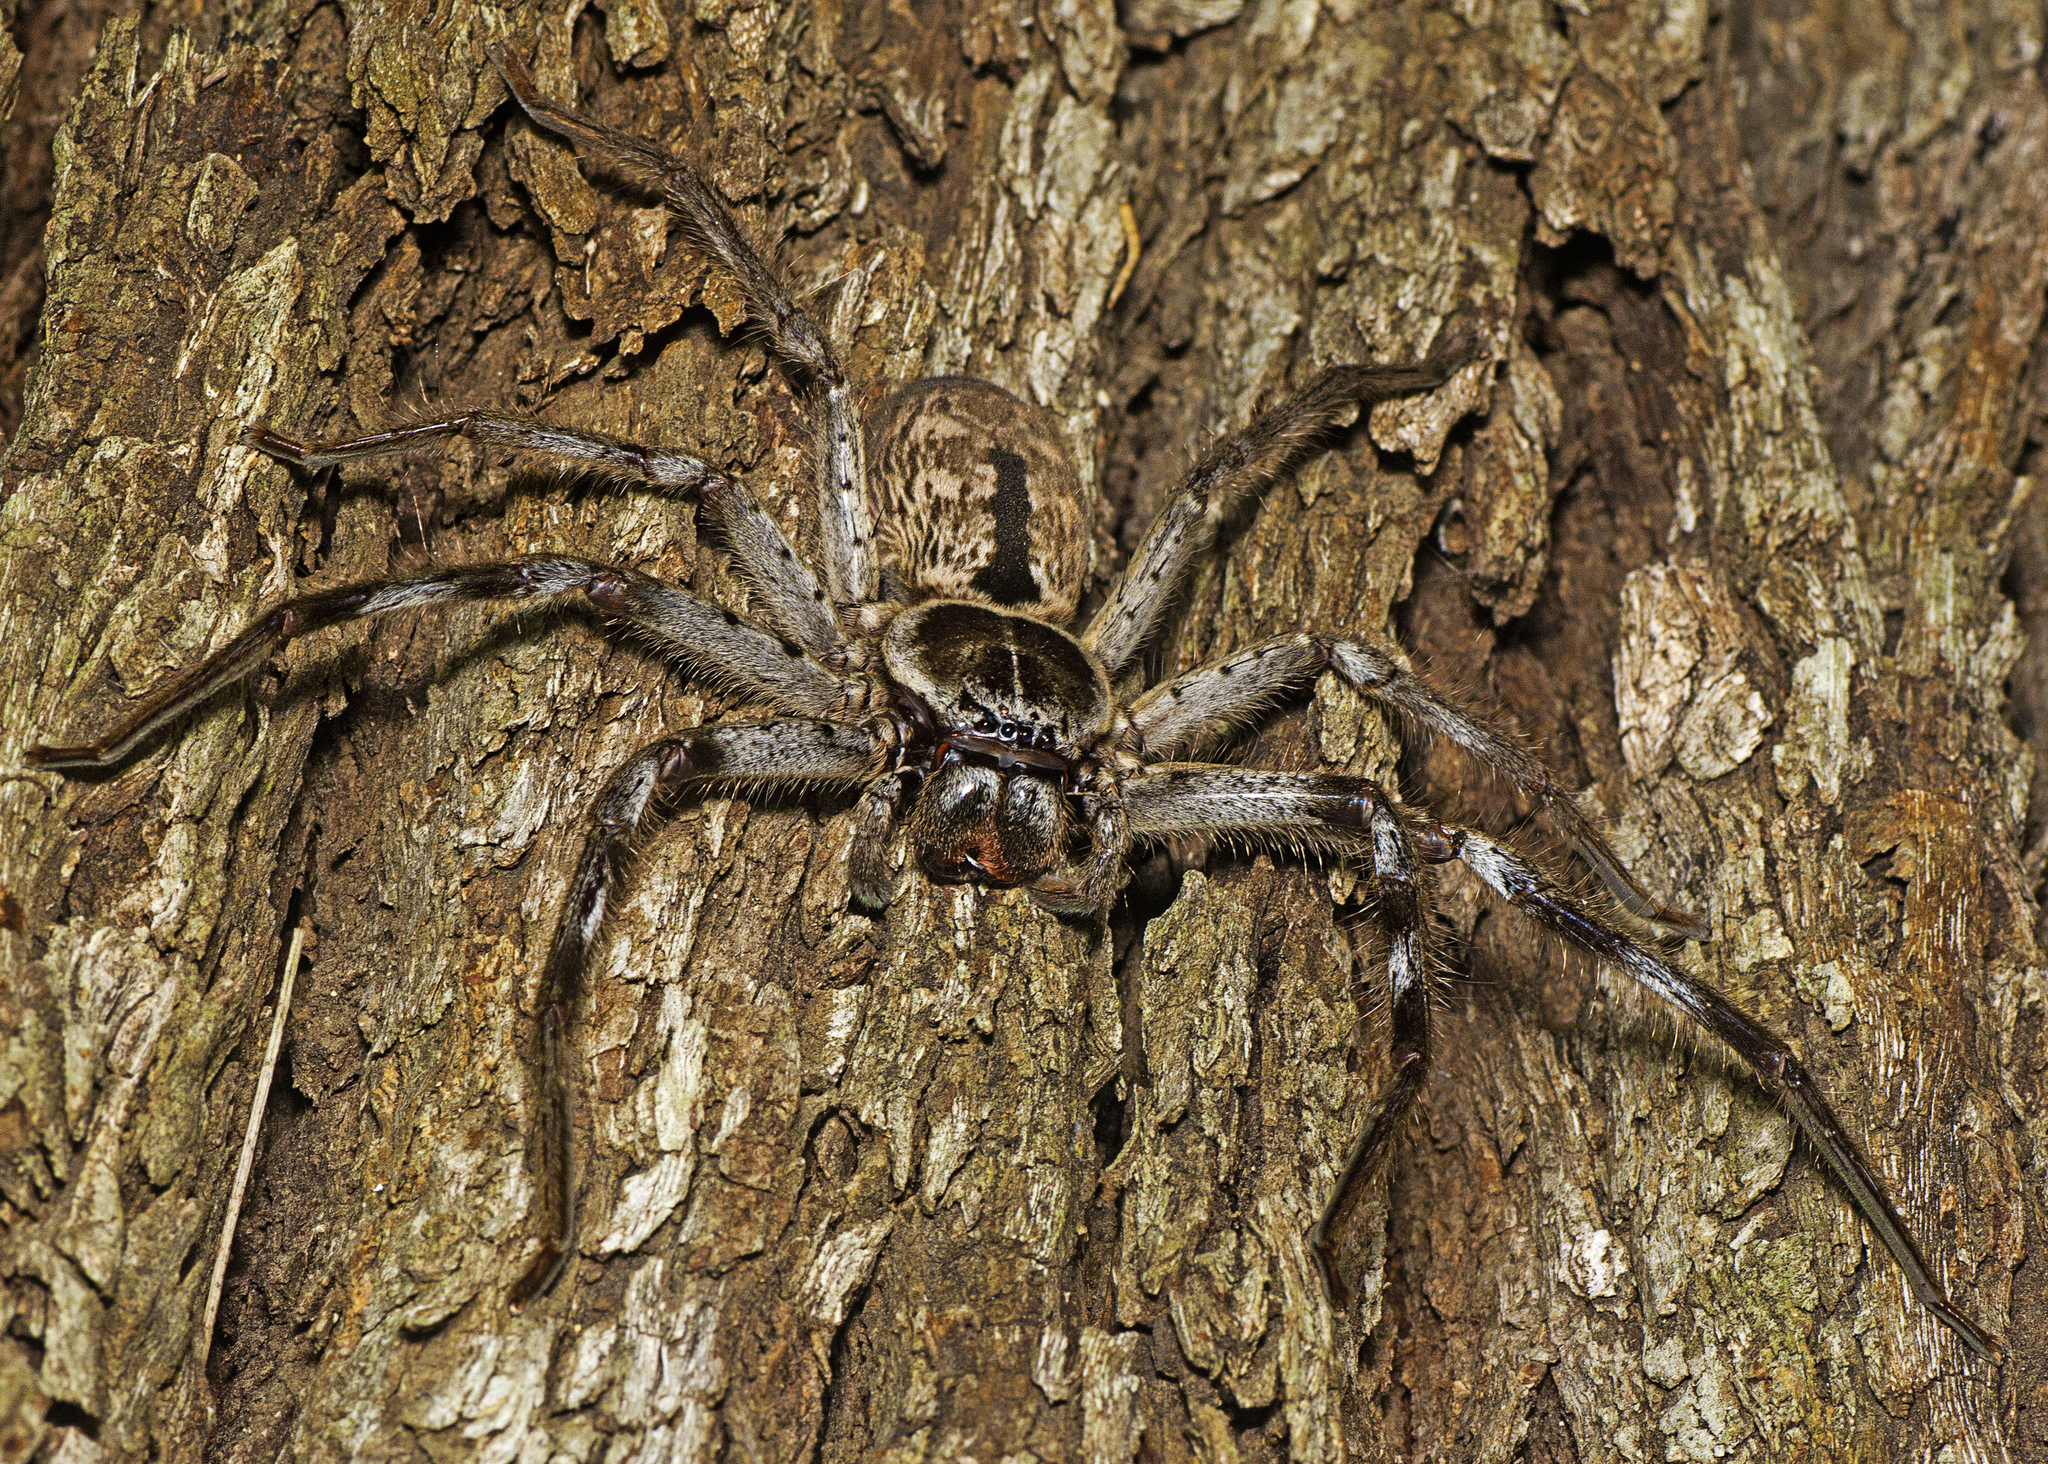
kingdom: Animalia
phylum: Arthropoda
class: Arachnida
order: Araneae
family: Sparassidae
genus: Holconia
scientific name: Holconia immanis
